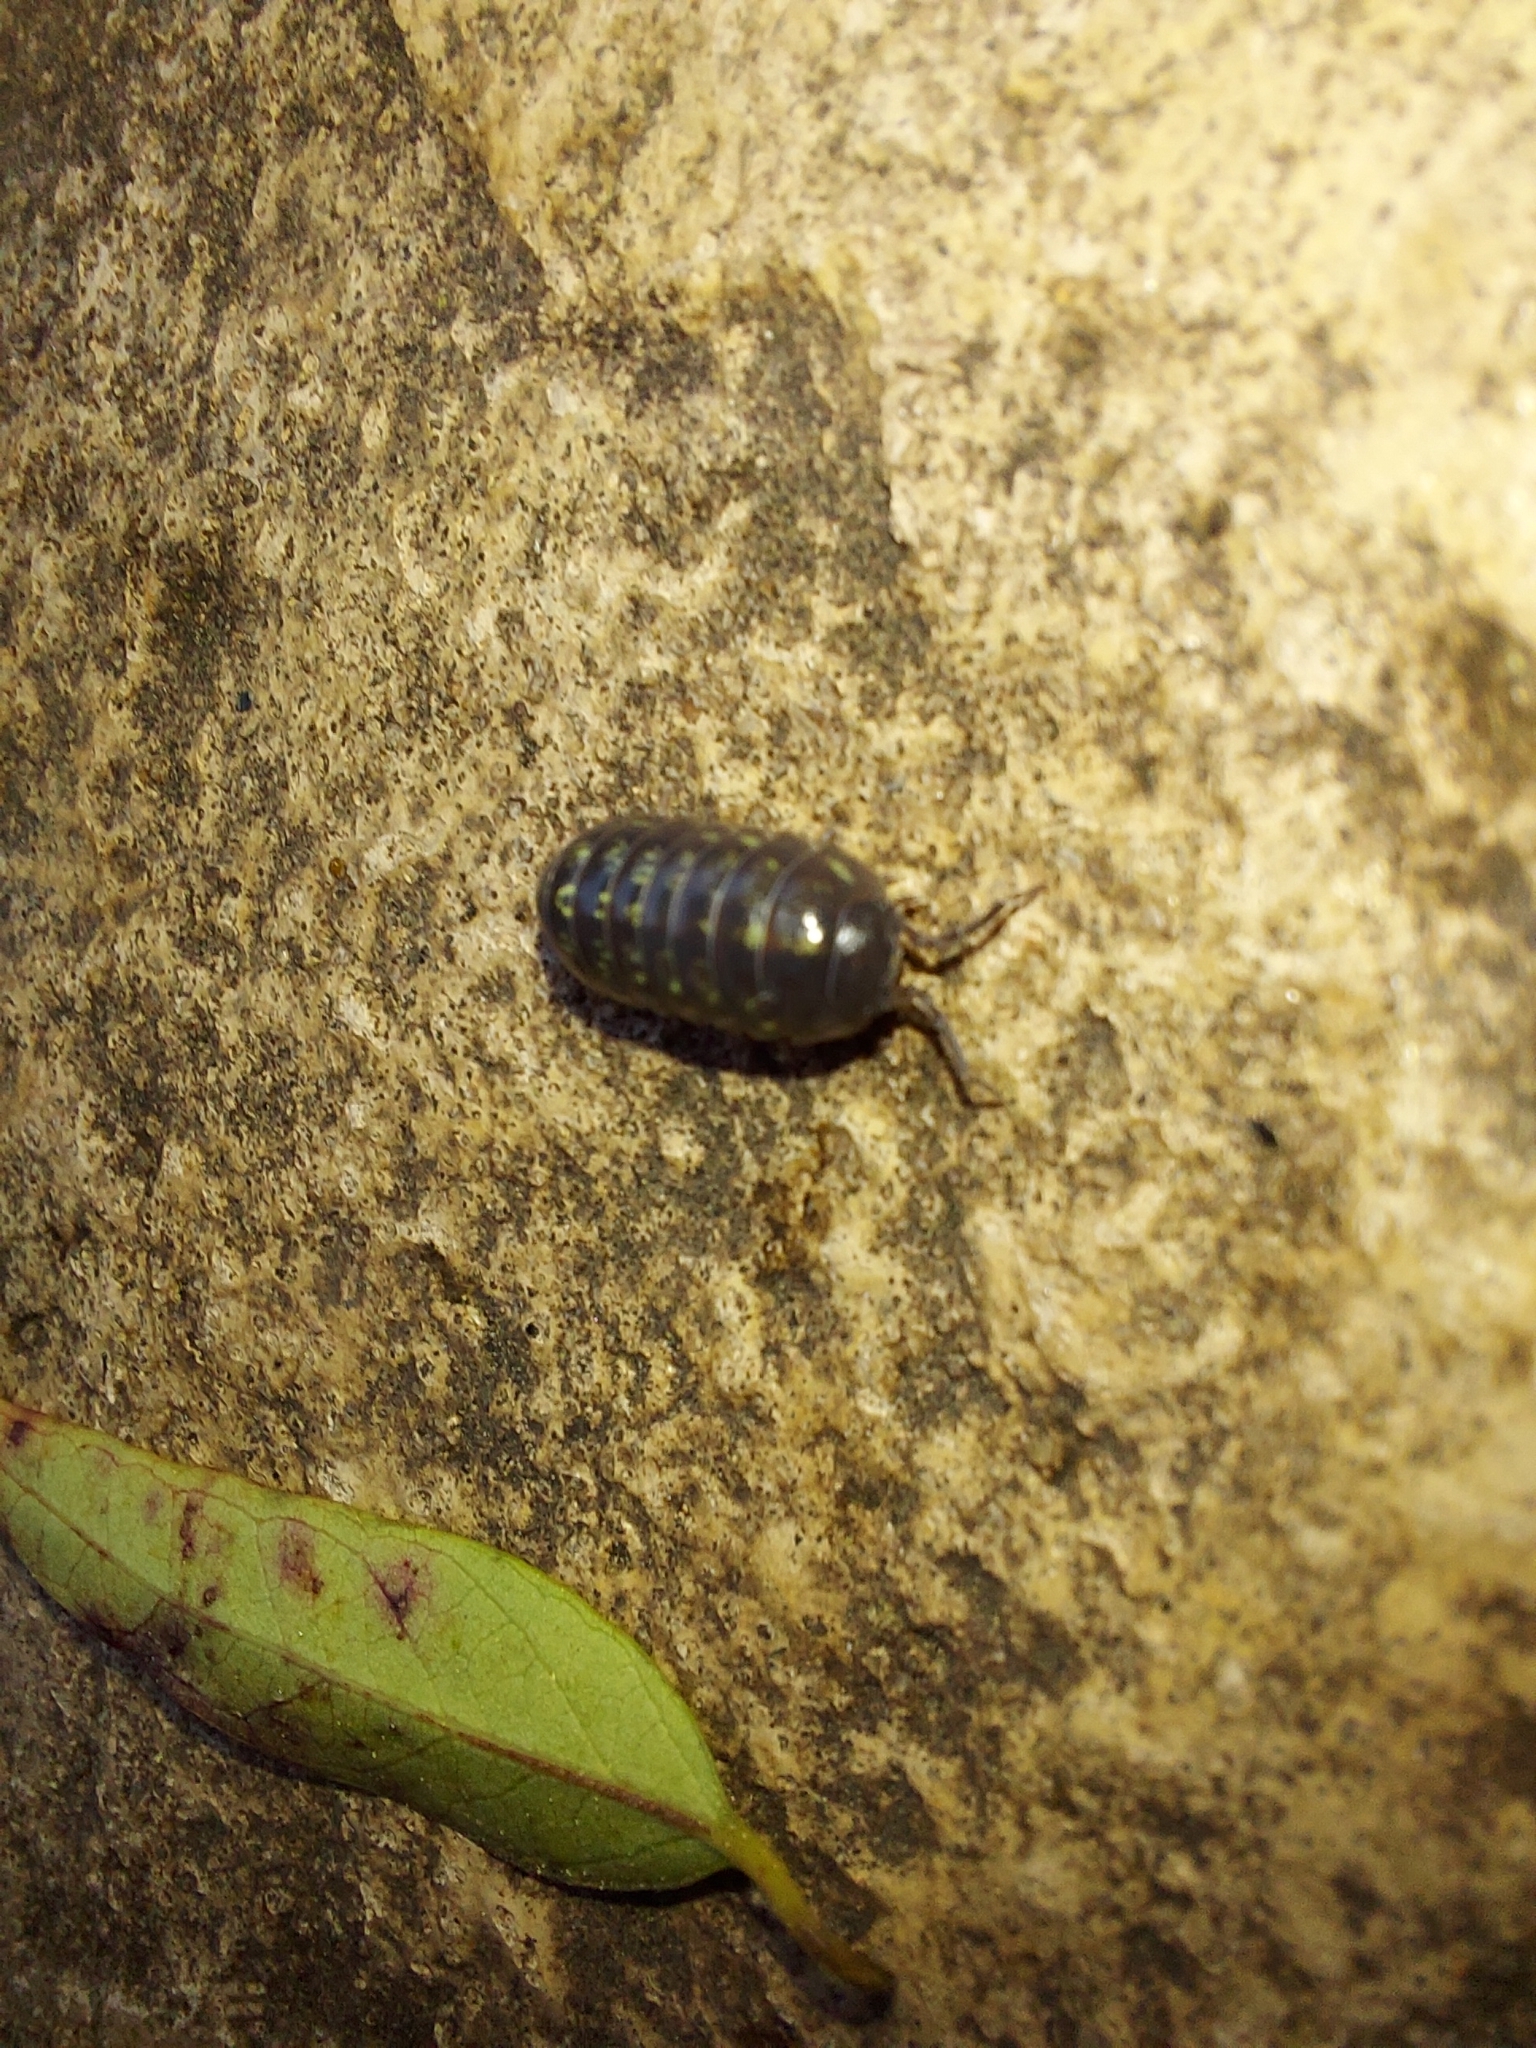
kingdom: Animalia
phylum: Arthropoda
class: Malacostraca
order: Isopoda
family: Armadillidiidae
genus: Armadillidium
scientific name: Armadillidium vulgare
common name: Common pill woodlouse
